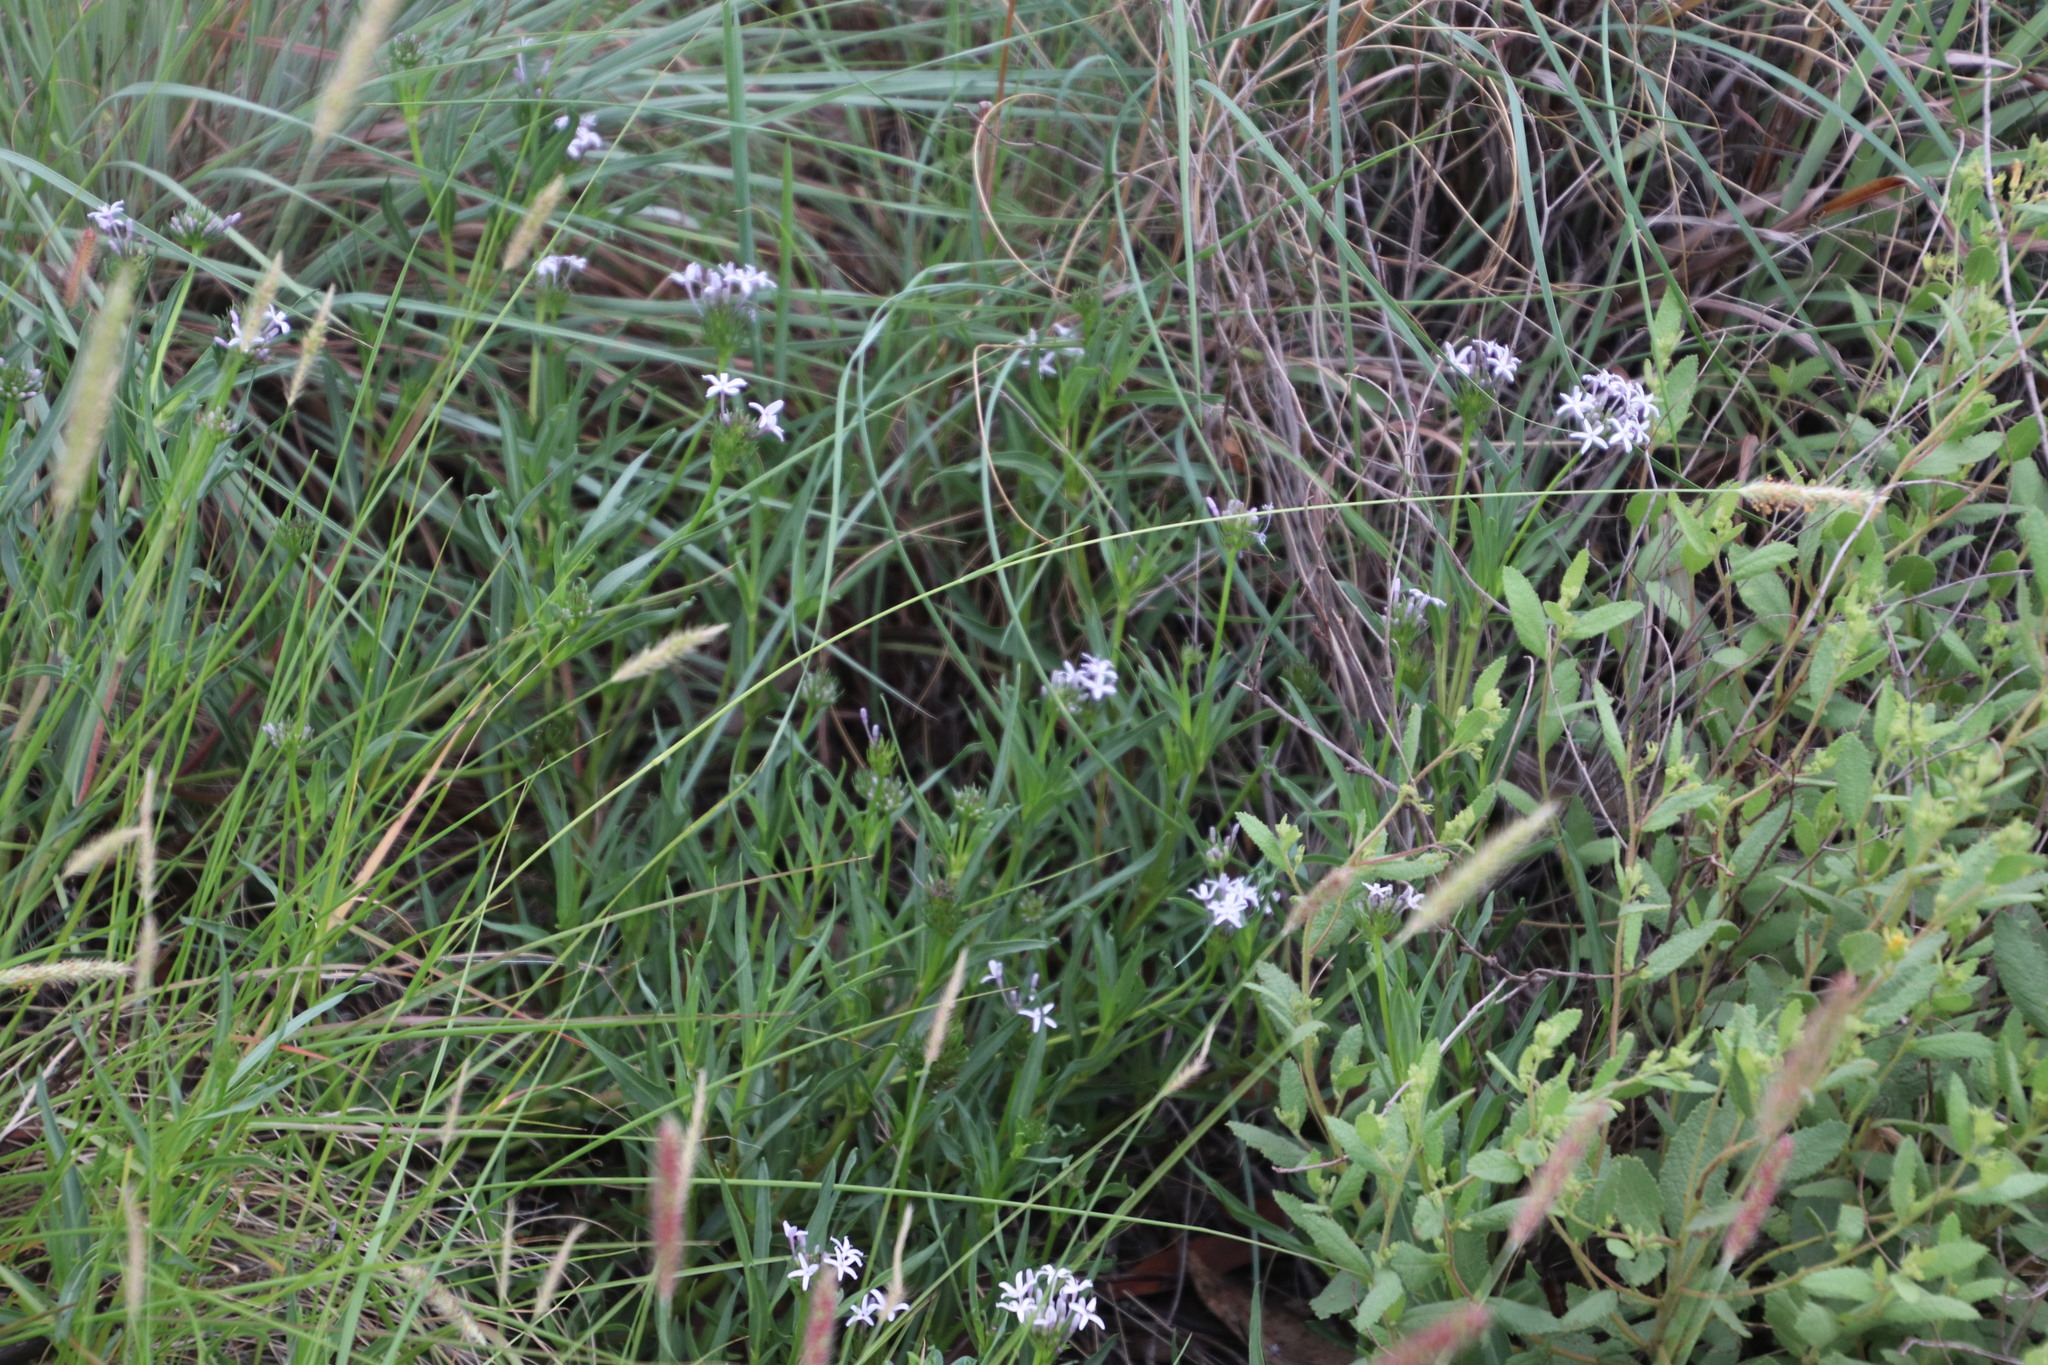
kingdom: Plantae
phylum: Tracheophyta
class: Magnoliopsida
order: Gentianales
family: Rubiaceae
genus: Pentanisia
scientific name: Pentanisia angustifolia
